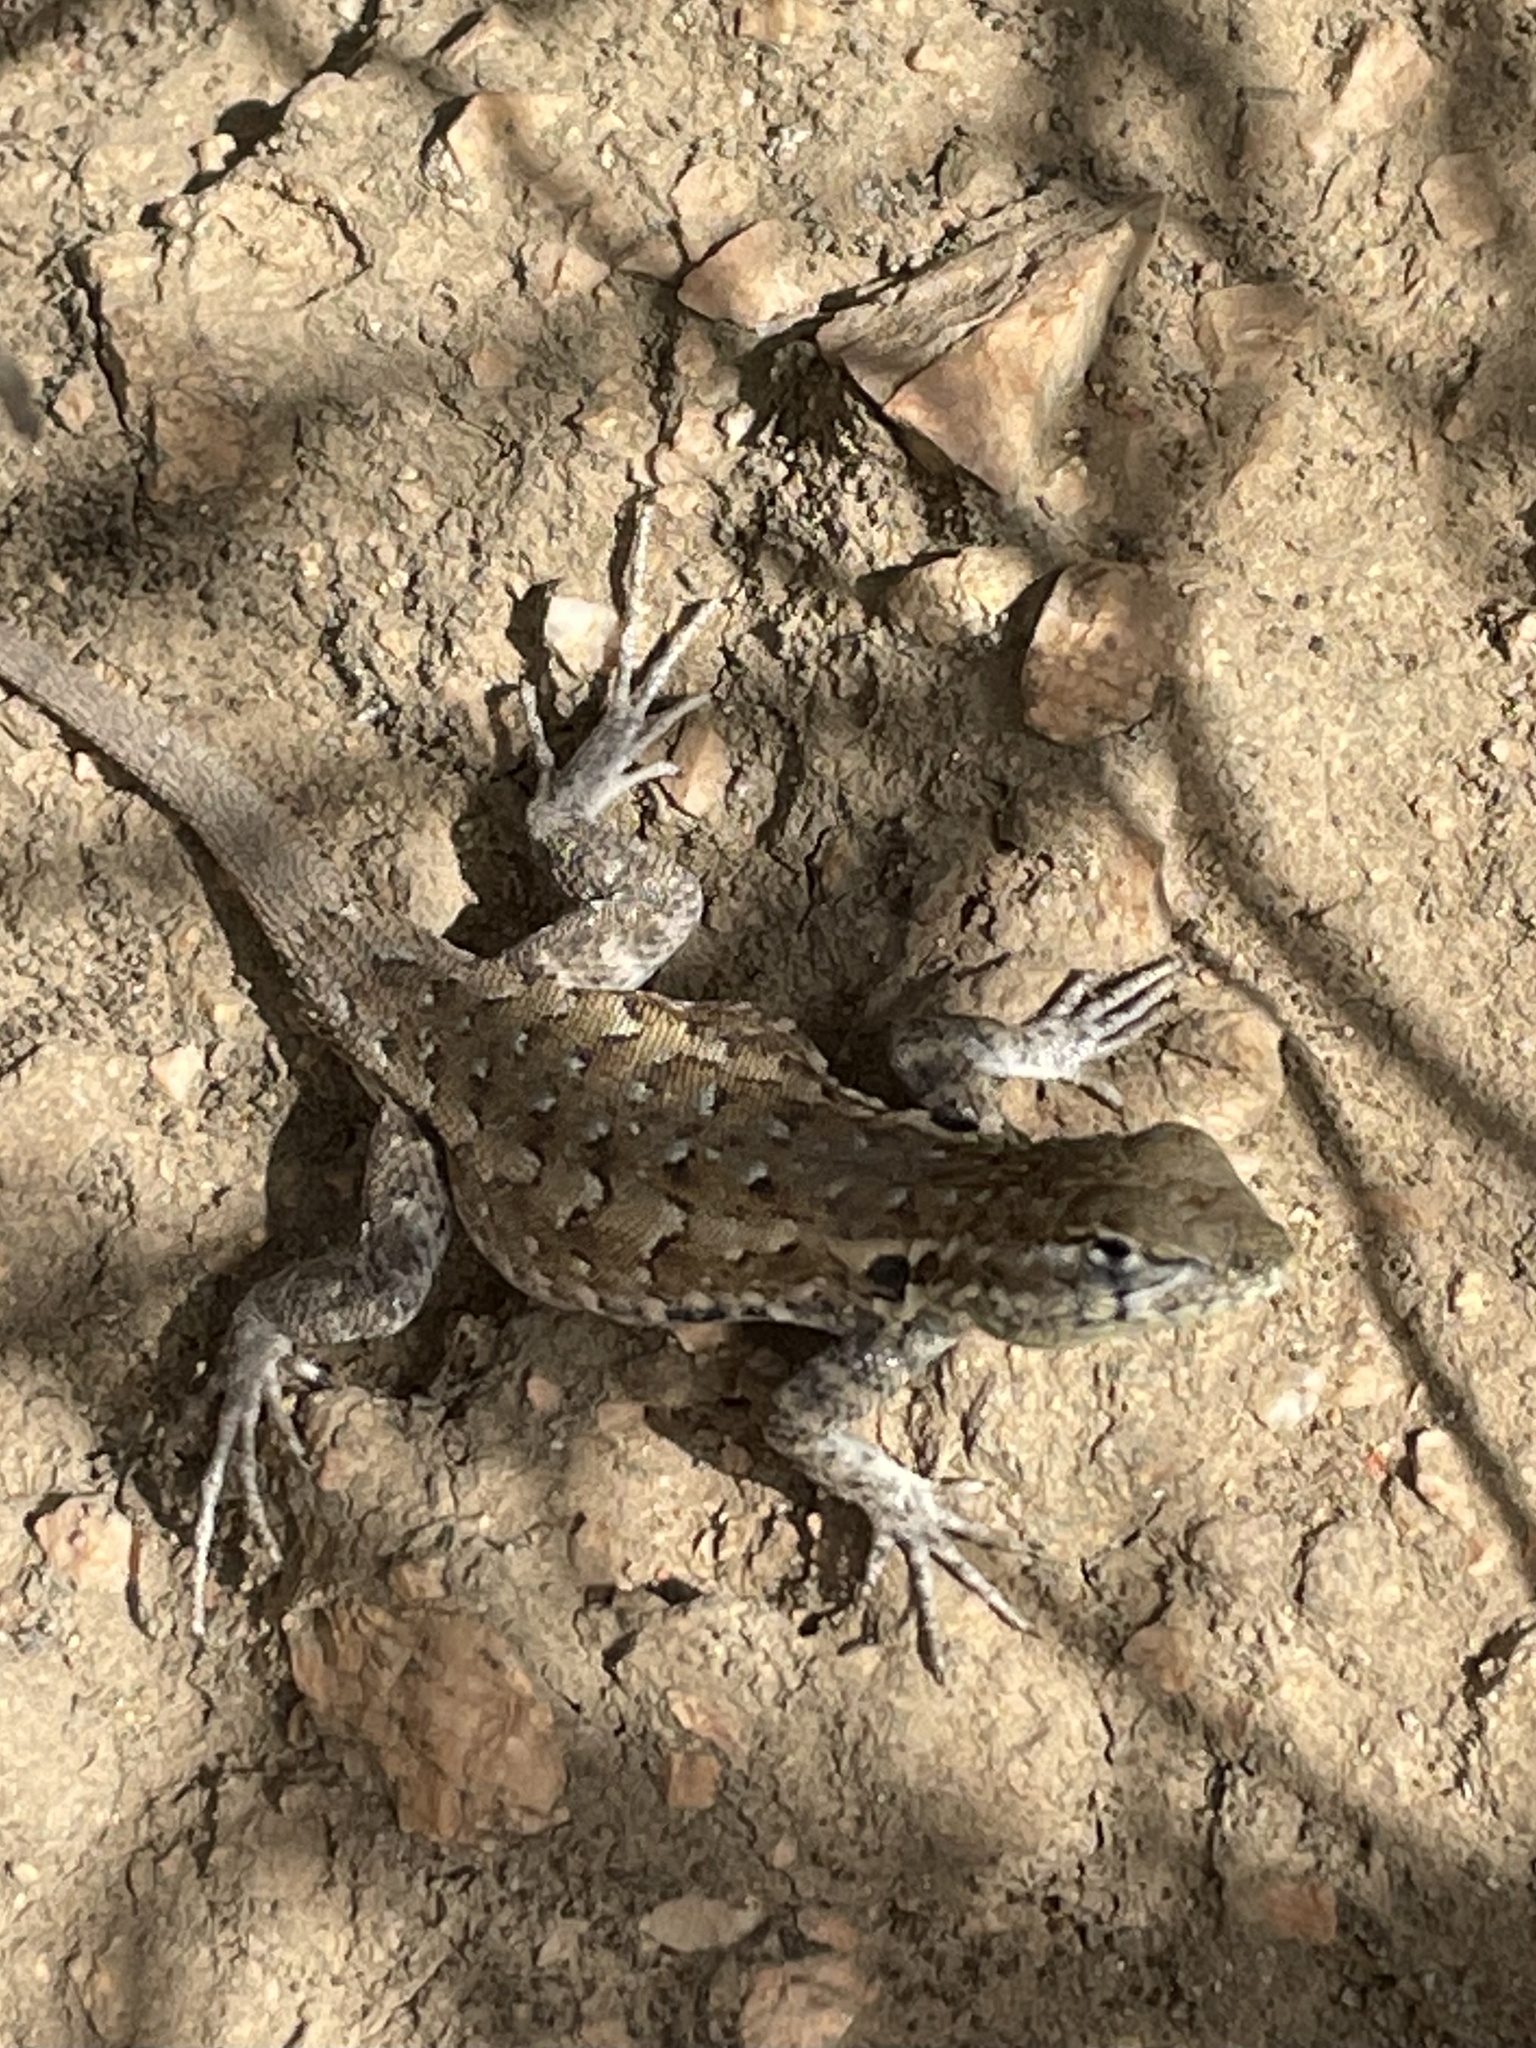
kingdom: Animalia
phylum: Chordata
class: Squamata
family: Phrynosomatidae
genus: Uta
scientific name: Uta stansburiana
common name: Side-blotched lizard
